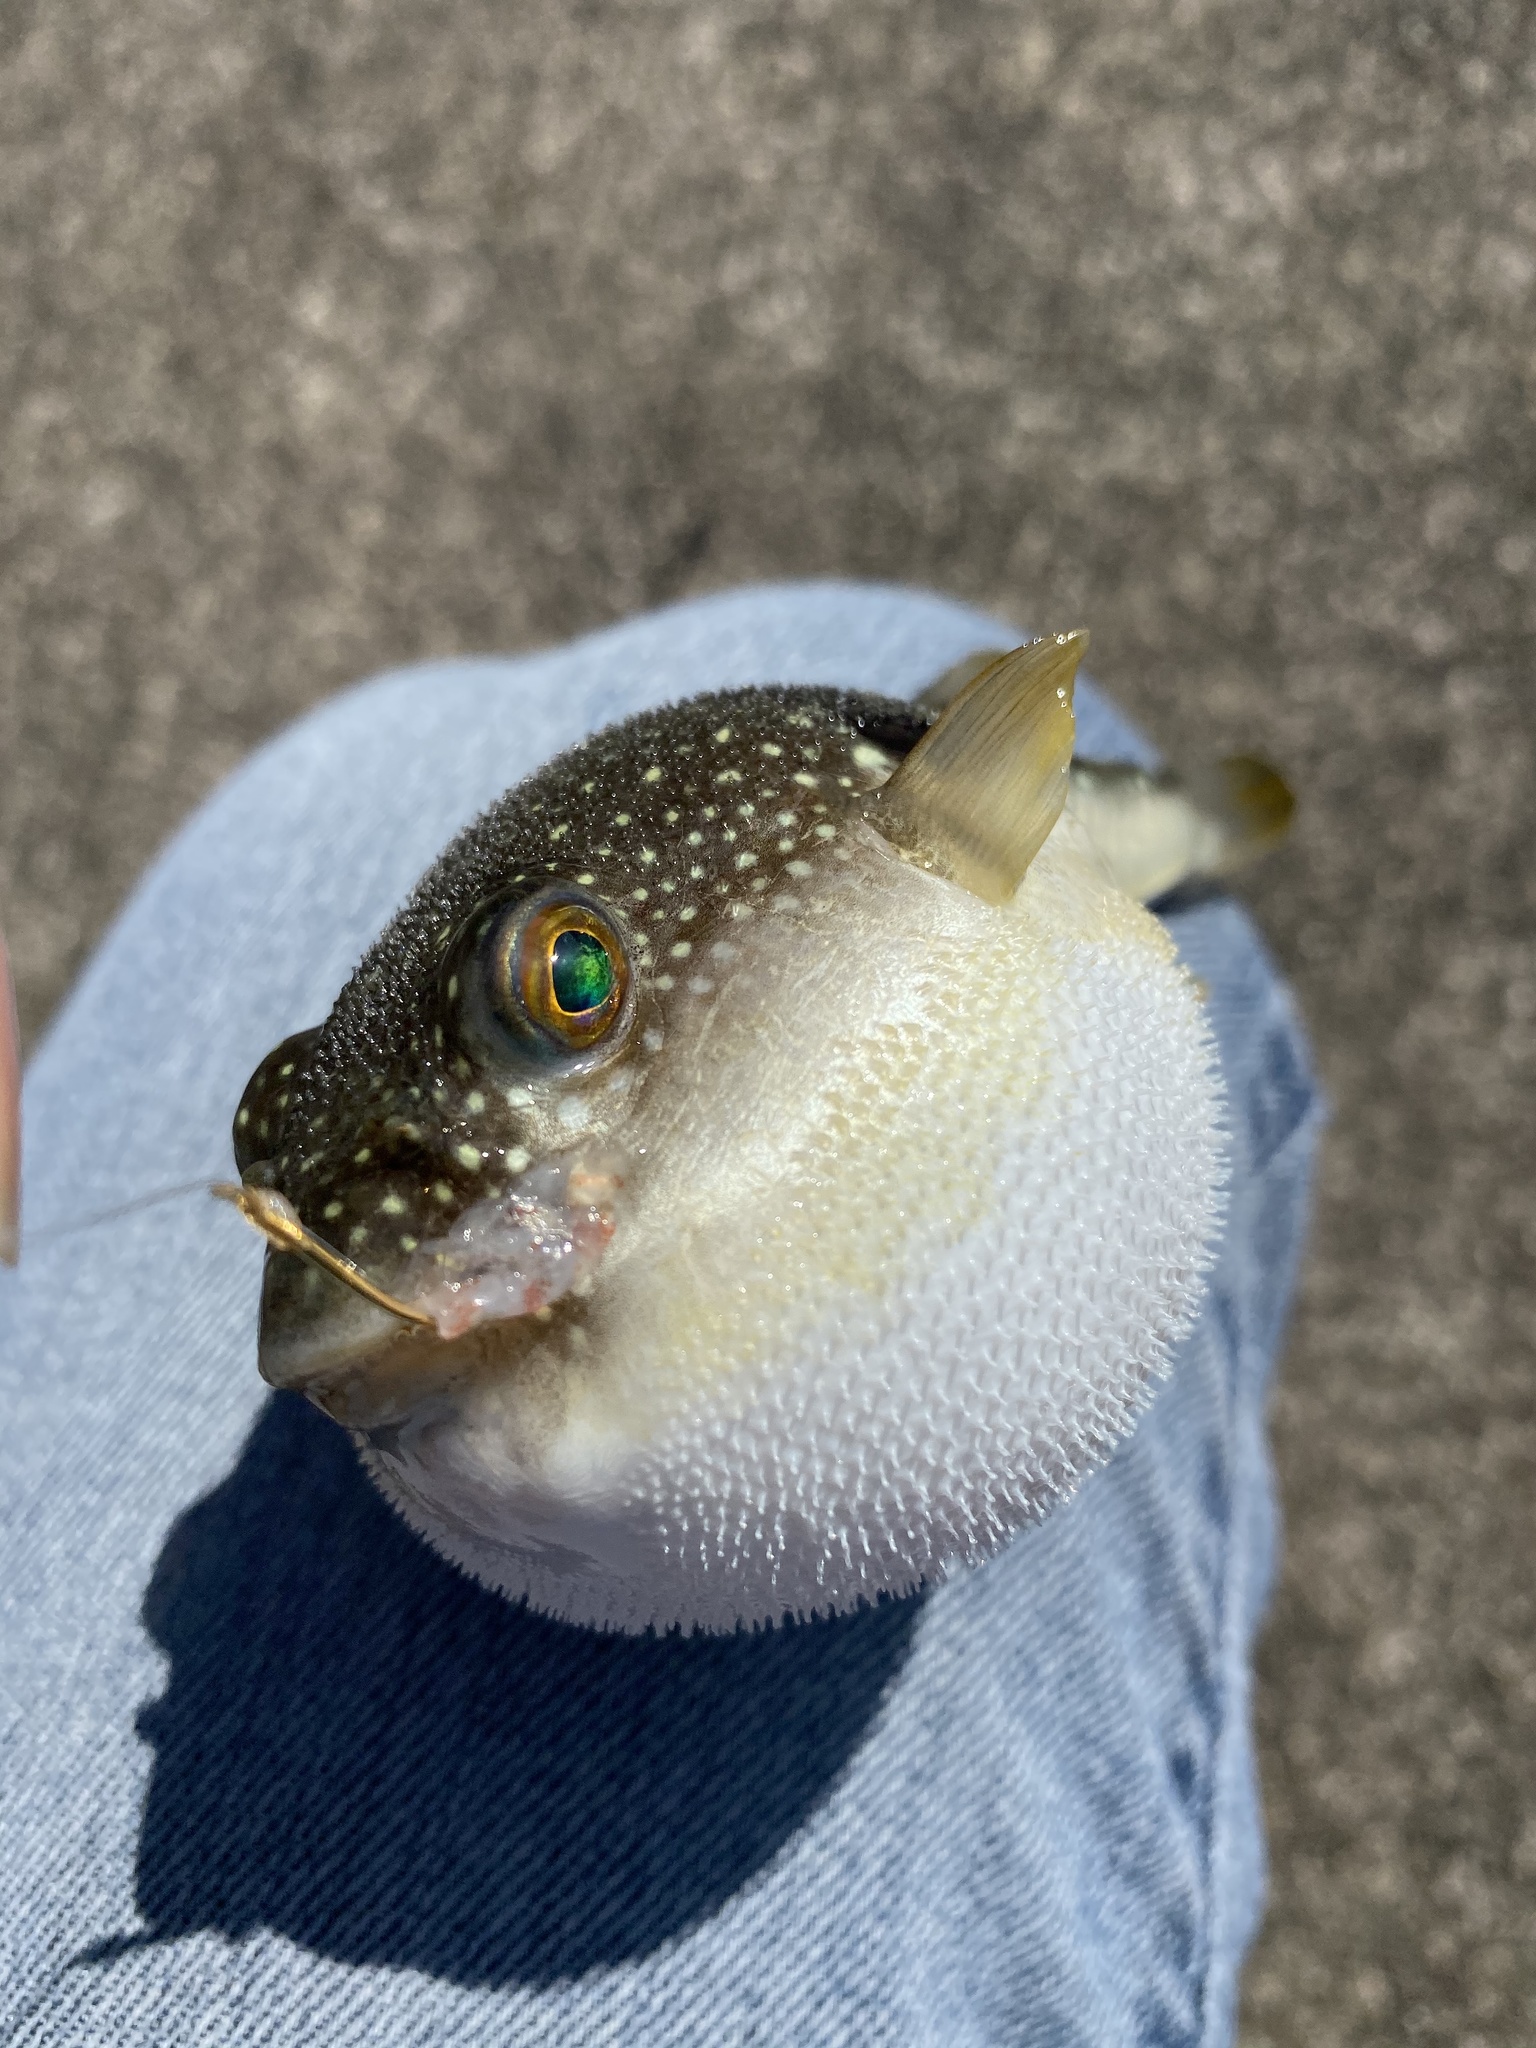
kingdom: Animalia
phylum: Chordata
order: Tetraodontiformes
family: Tetraodontidae
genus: Takifugu
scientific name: Takifugu alboplumbeus
